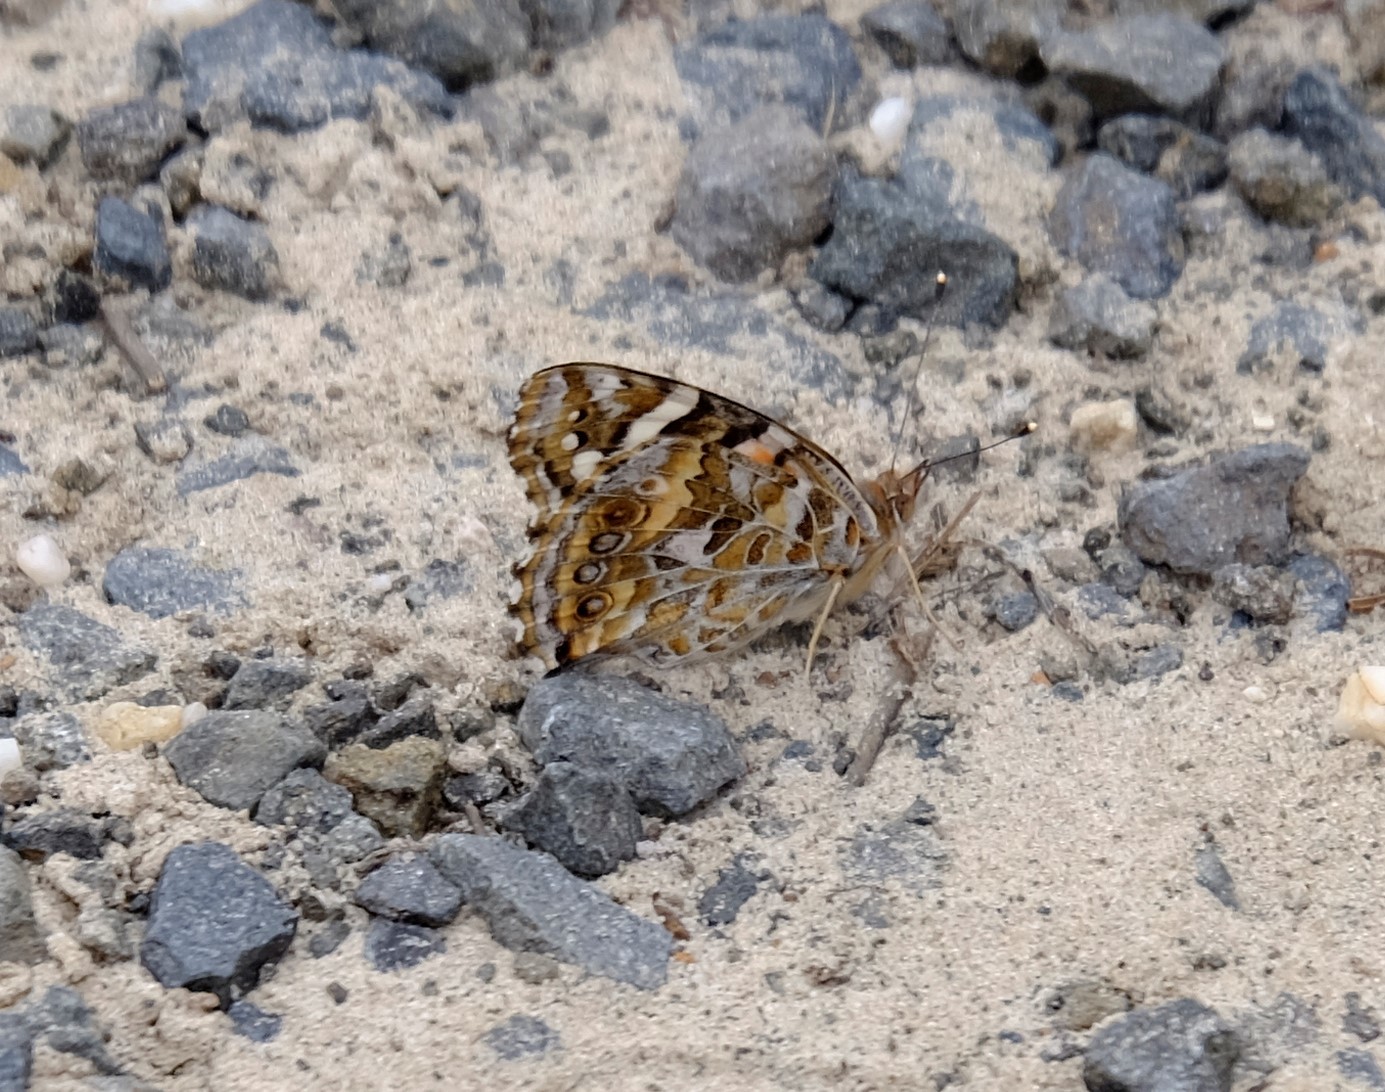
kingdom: Animalia
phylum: Arthropoda
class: Insecta
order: Lepidoptera
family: Nymphalidae
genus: Vanessa
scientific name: Vanessa kershawi
